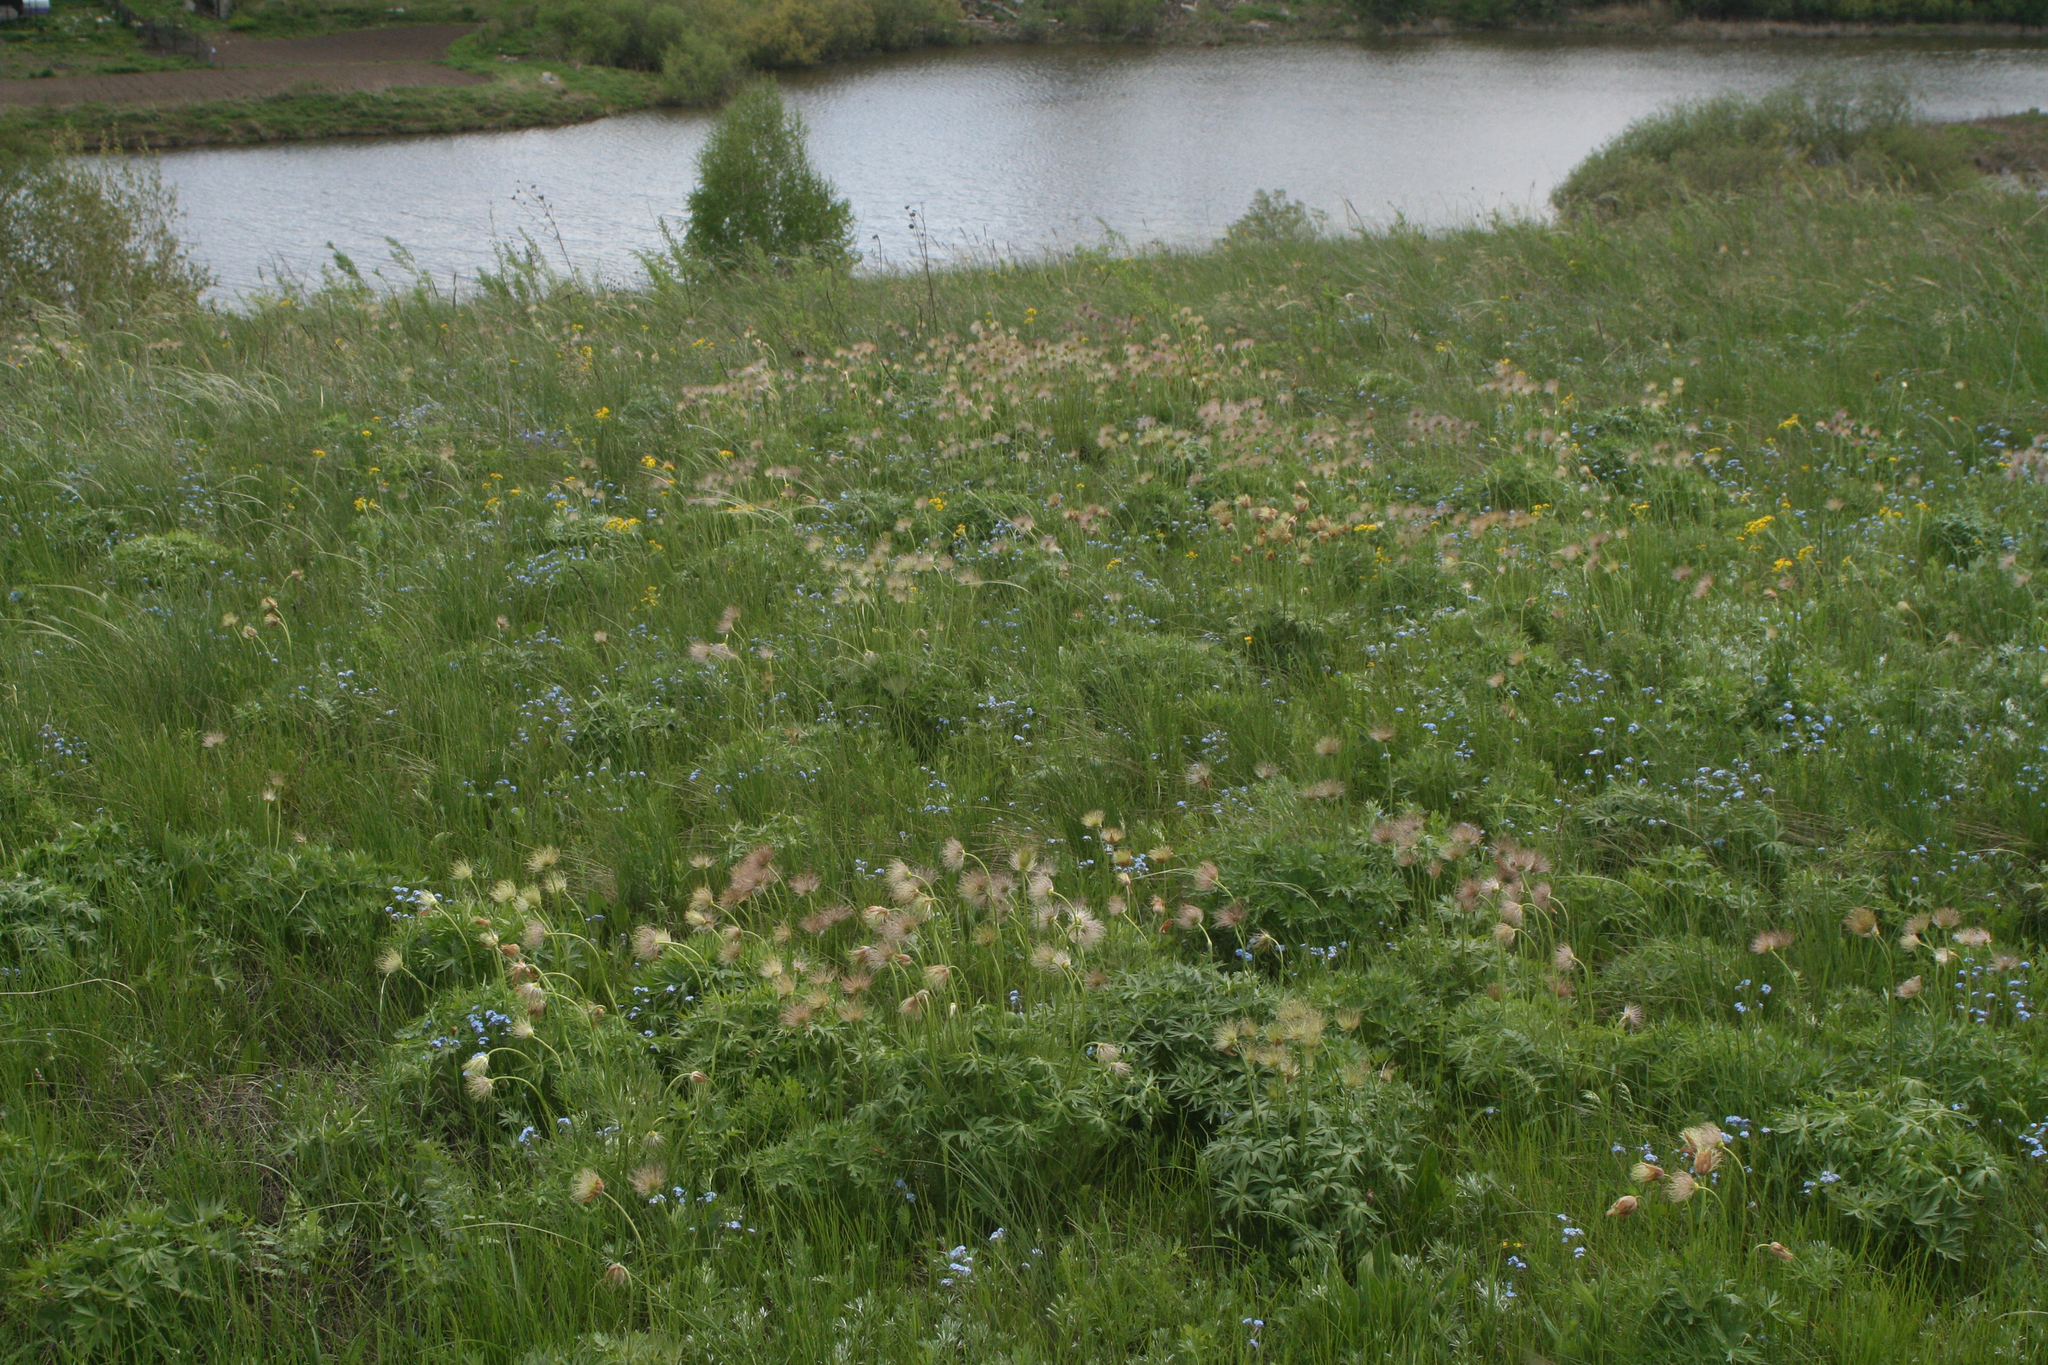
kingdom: Plantae
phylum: Tracheophyta
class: Magnoliopsida
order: Ranunculales
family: Ranunculaceae
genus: Pulsatilla
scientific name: Pulsatilla patens
